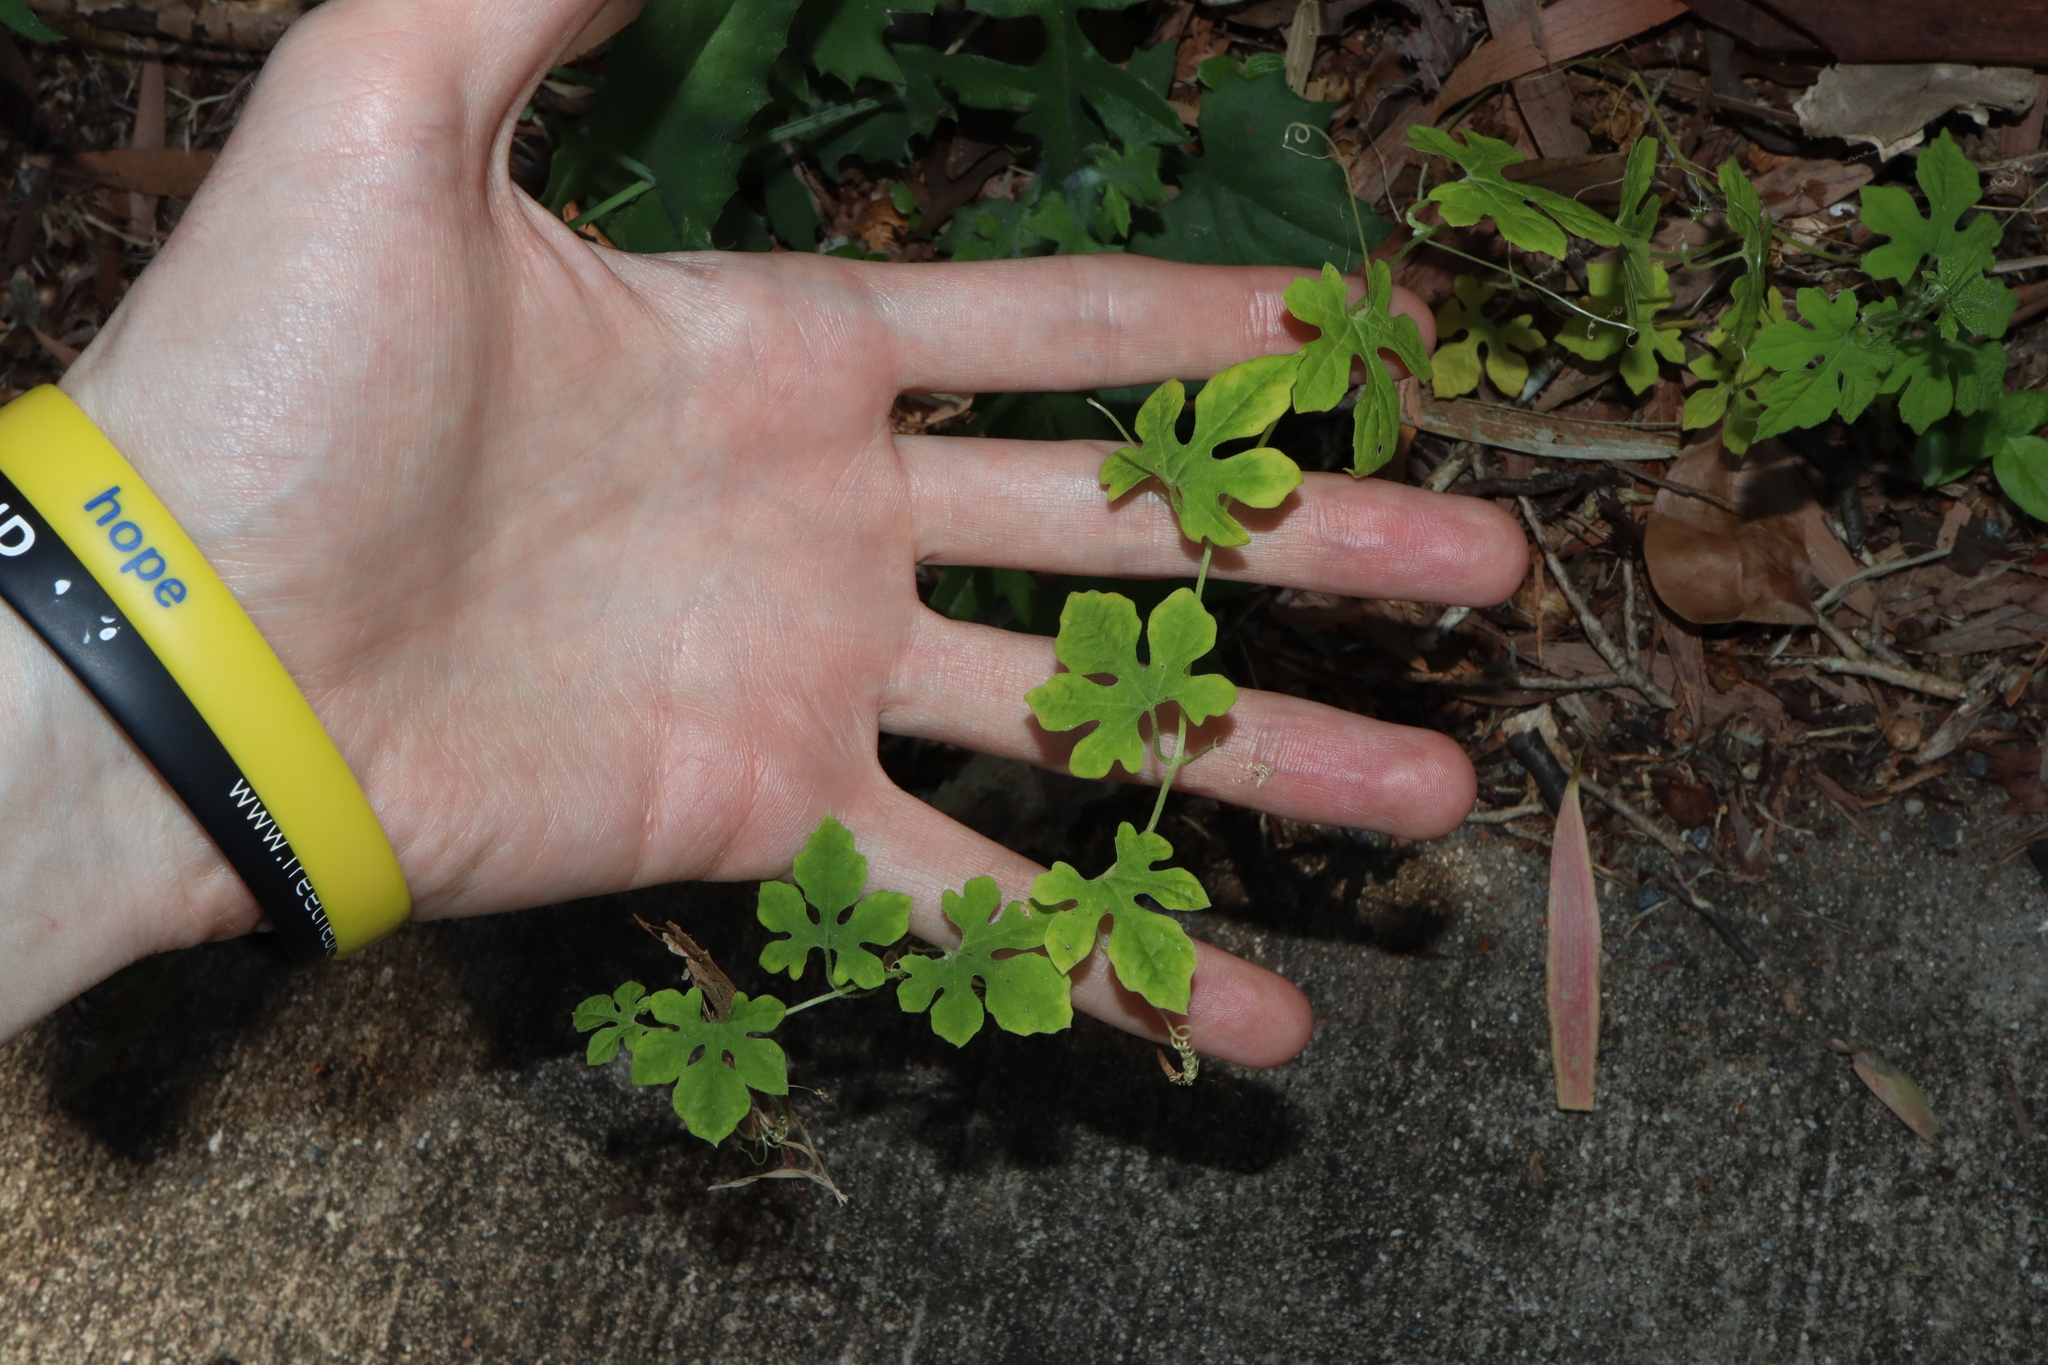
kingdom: Plantae
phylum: Tracheophyta
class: Magnoliopsida
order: Cucurbitales
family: Cucurbitaceae
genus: Momordica
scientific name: Momordica charantia
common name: Balsampear
